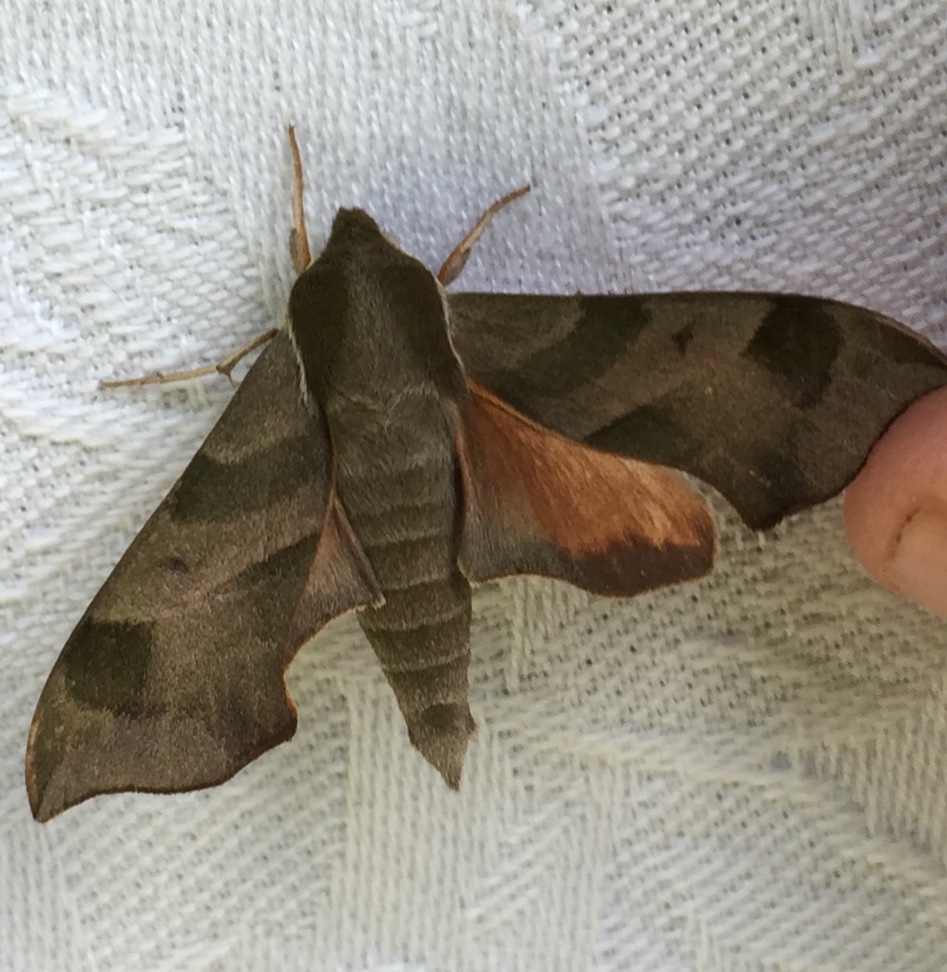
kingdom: Animalia
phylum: Arthropoda
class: Insecta
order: Lepidoptera
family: Sphingidae
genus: Darapsa
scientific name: Darapsa myron
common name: Hog sphinx
